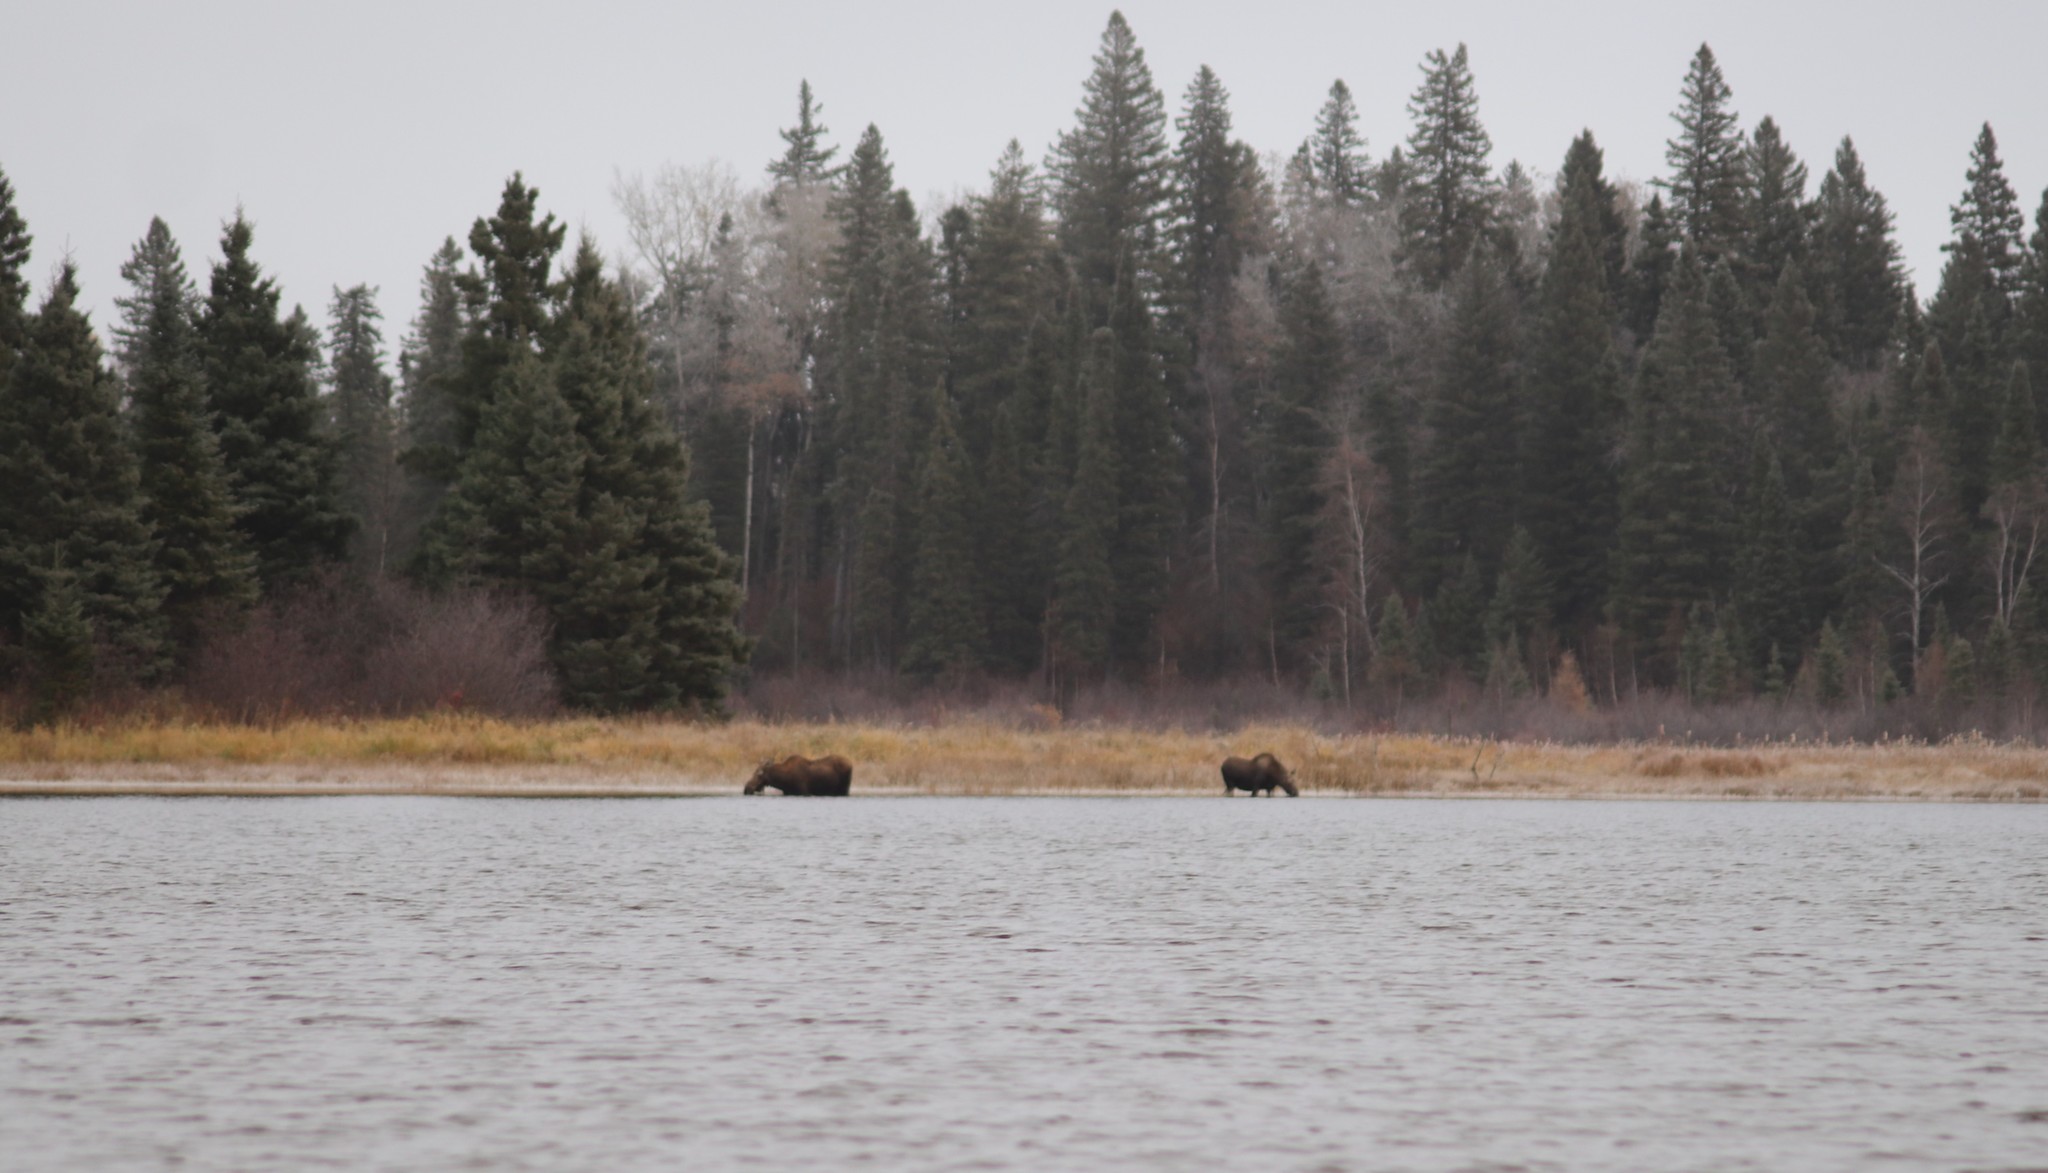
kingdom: Animalia
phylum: Chordata
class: Mammalia
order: Artiodactyla
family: Cervidae
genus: Alces
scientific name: Alces alces
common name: Moose
